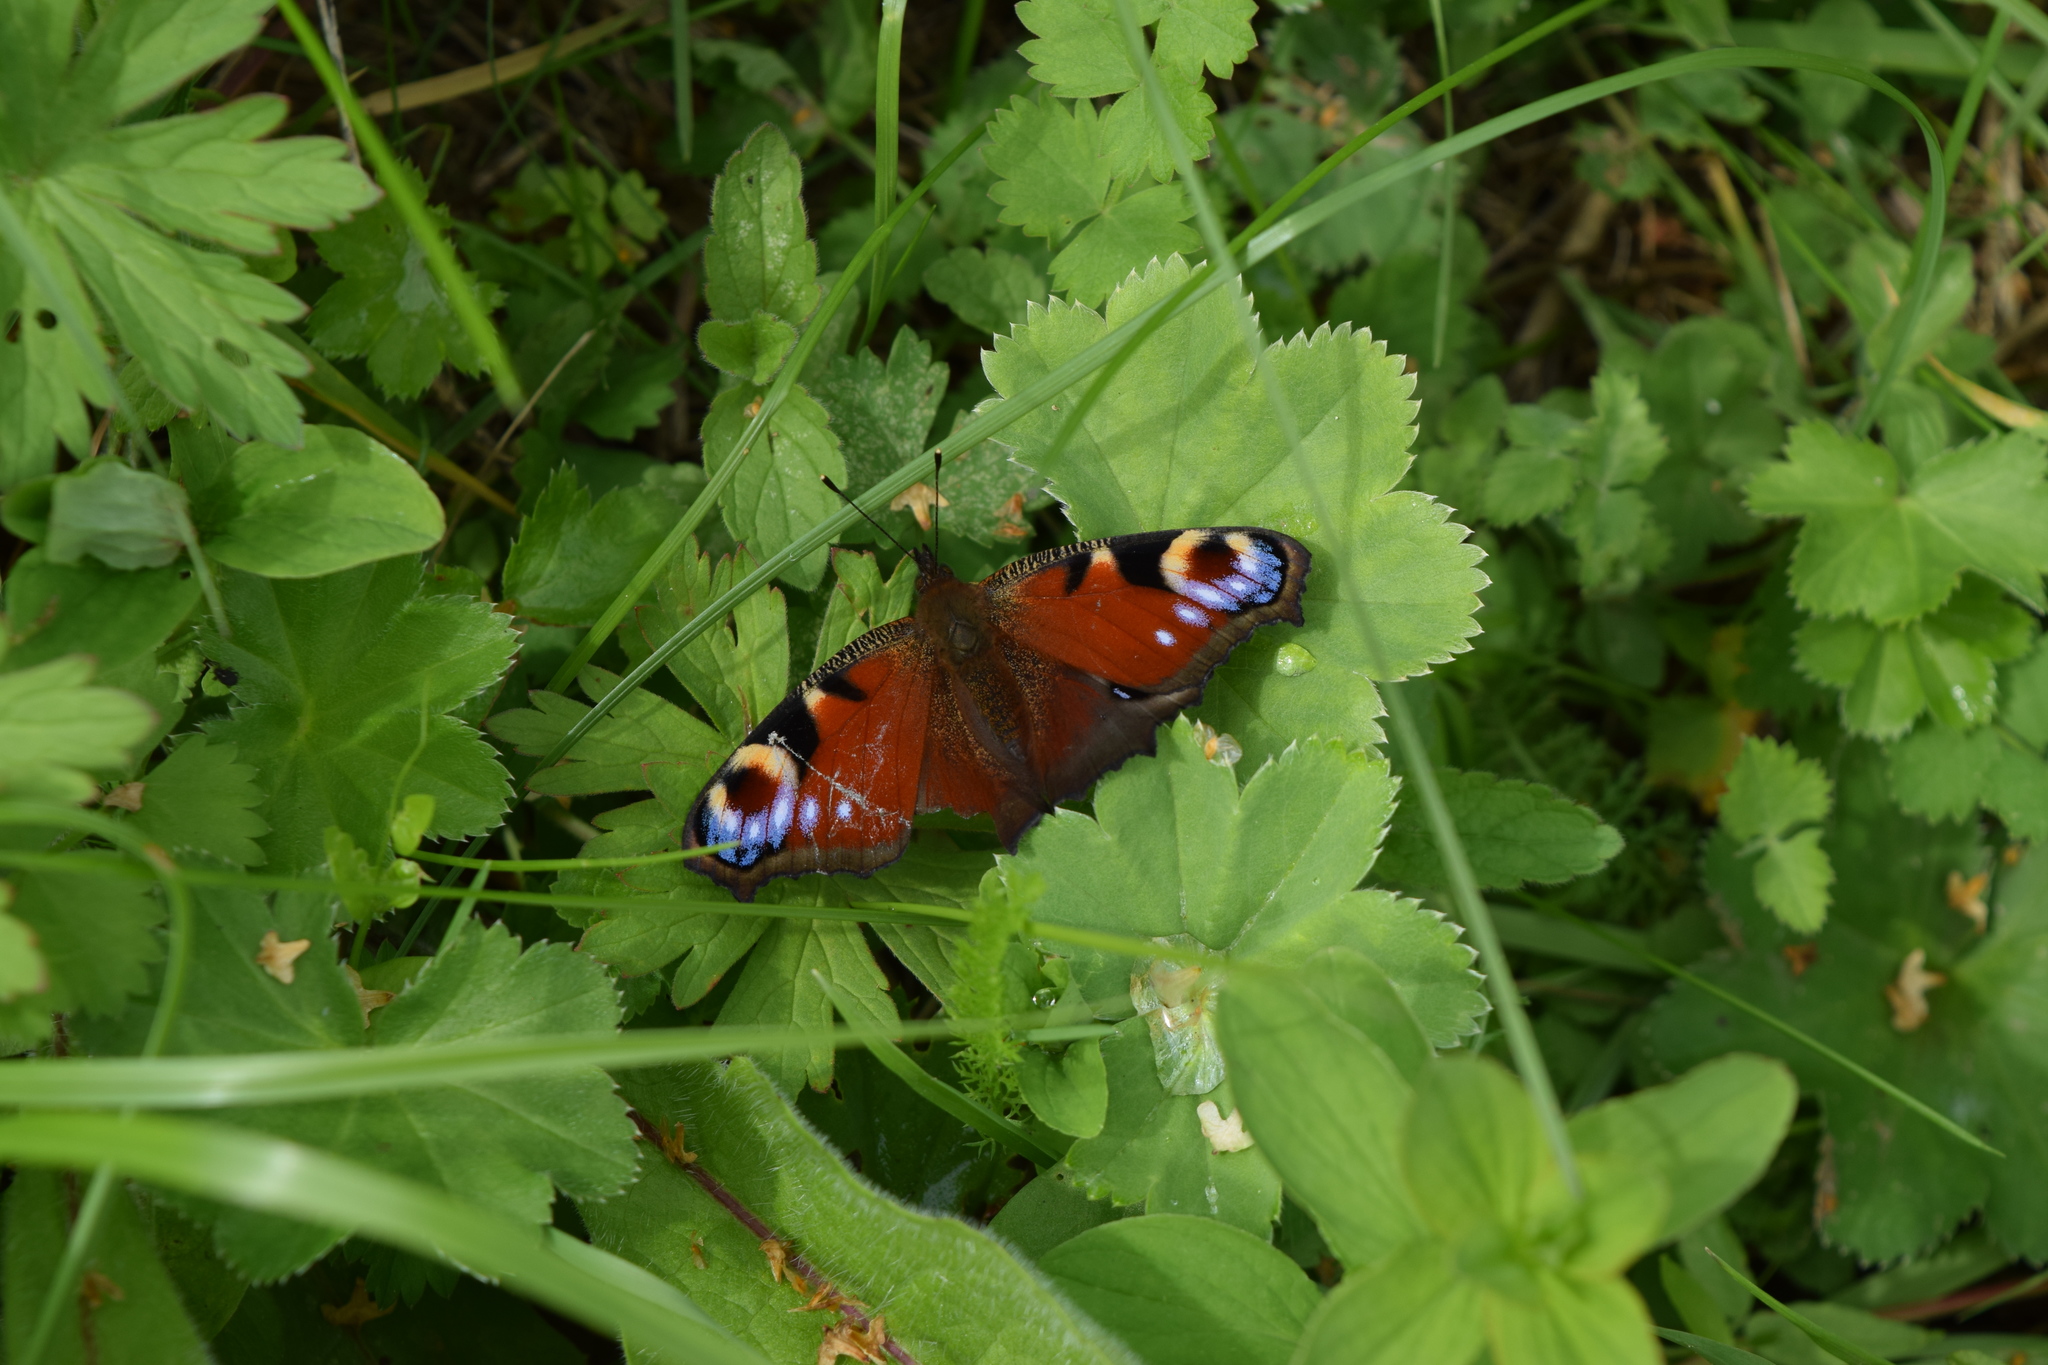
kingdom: Animalia
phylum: Arthropoda
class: Insecta
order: Lepidoptera
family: Nymphalidae
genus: Aglais
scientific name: Aglais io
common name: Peacock
